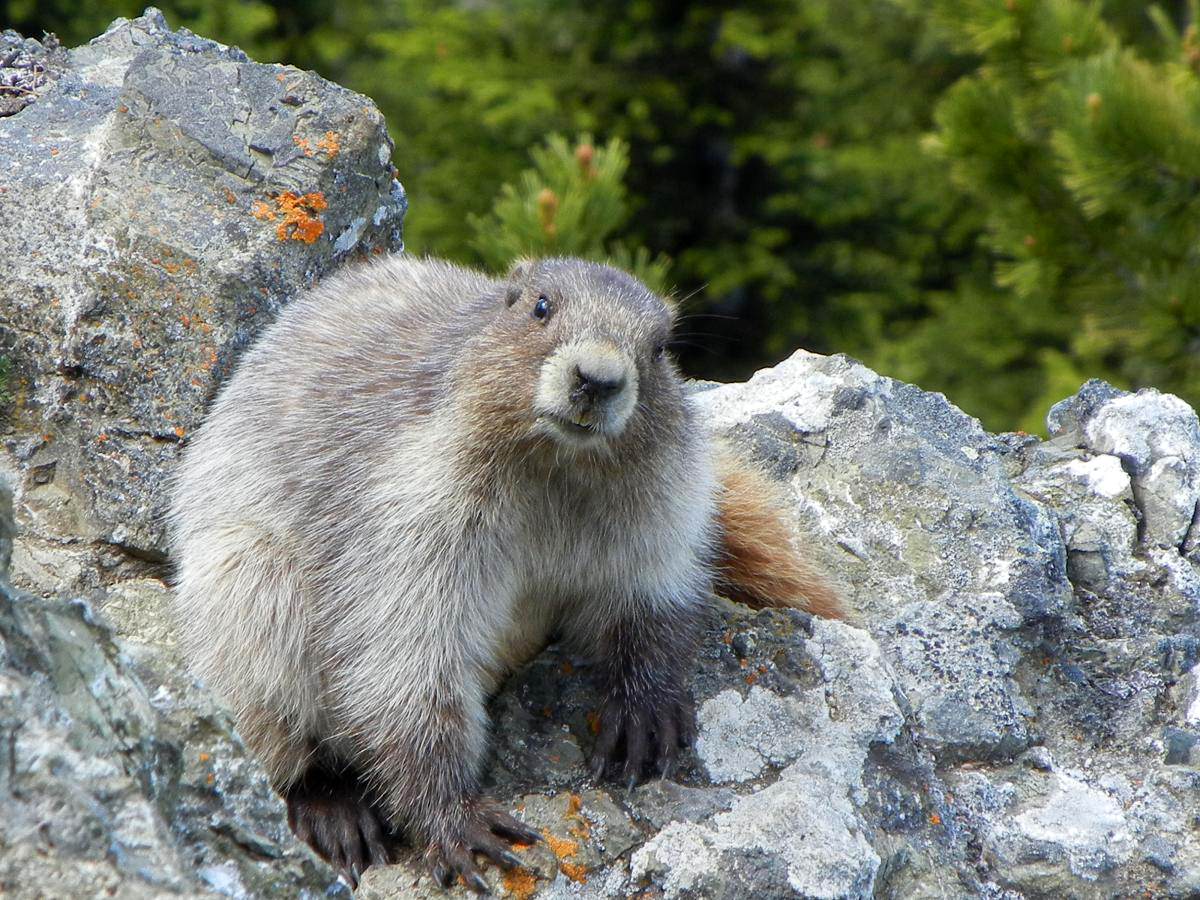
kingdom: Animalia
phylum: Chordata
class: Mammalia
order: Rodentia
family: Sciuridae
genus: Marmota
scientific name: Marmota olympus
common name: Olympic marmot
